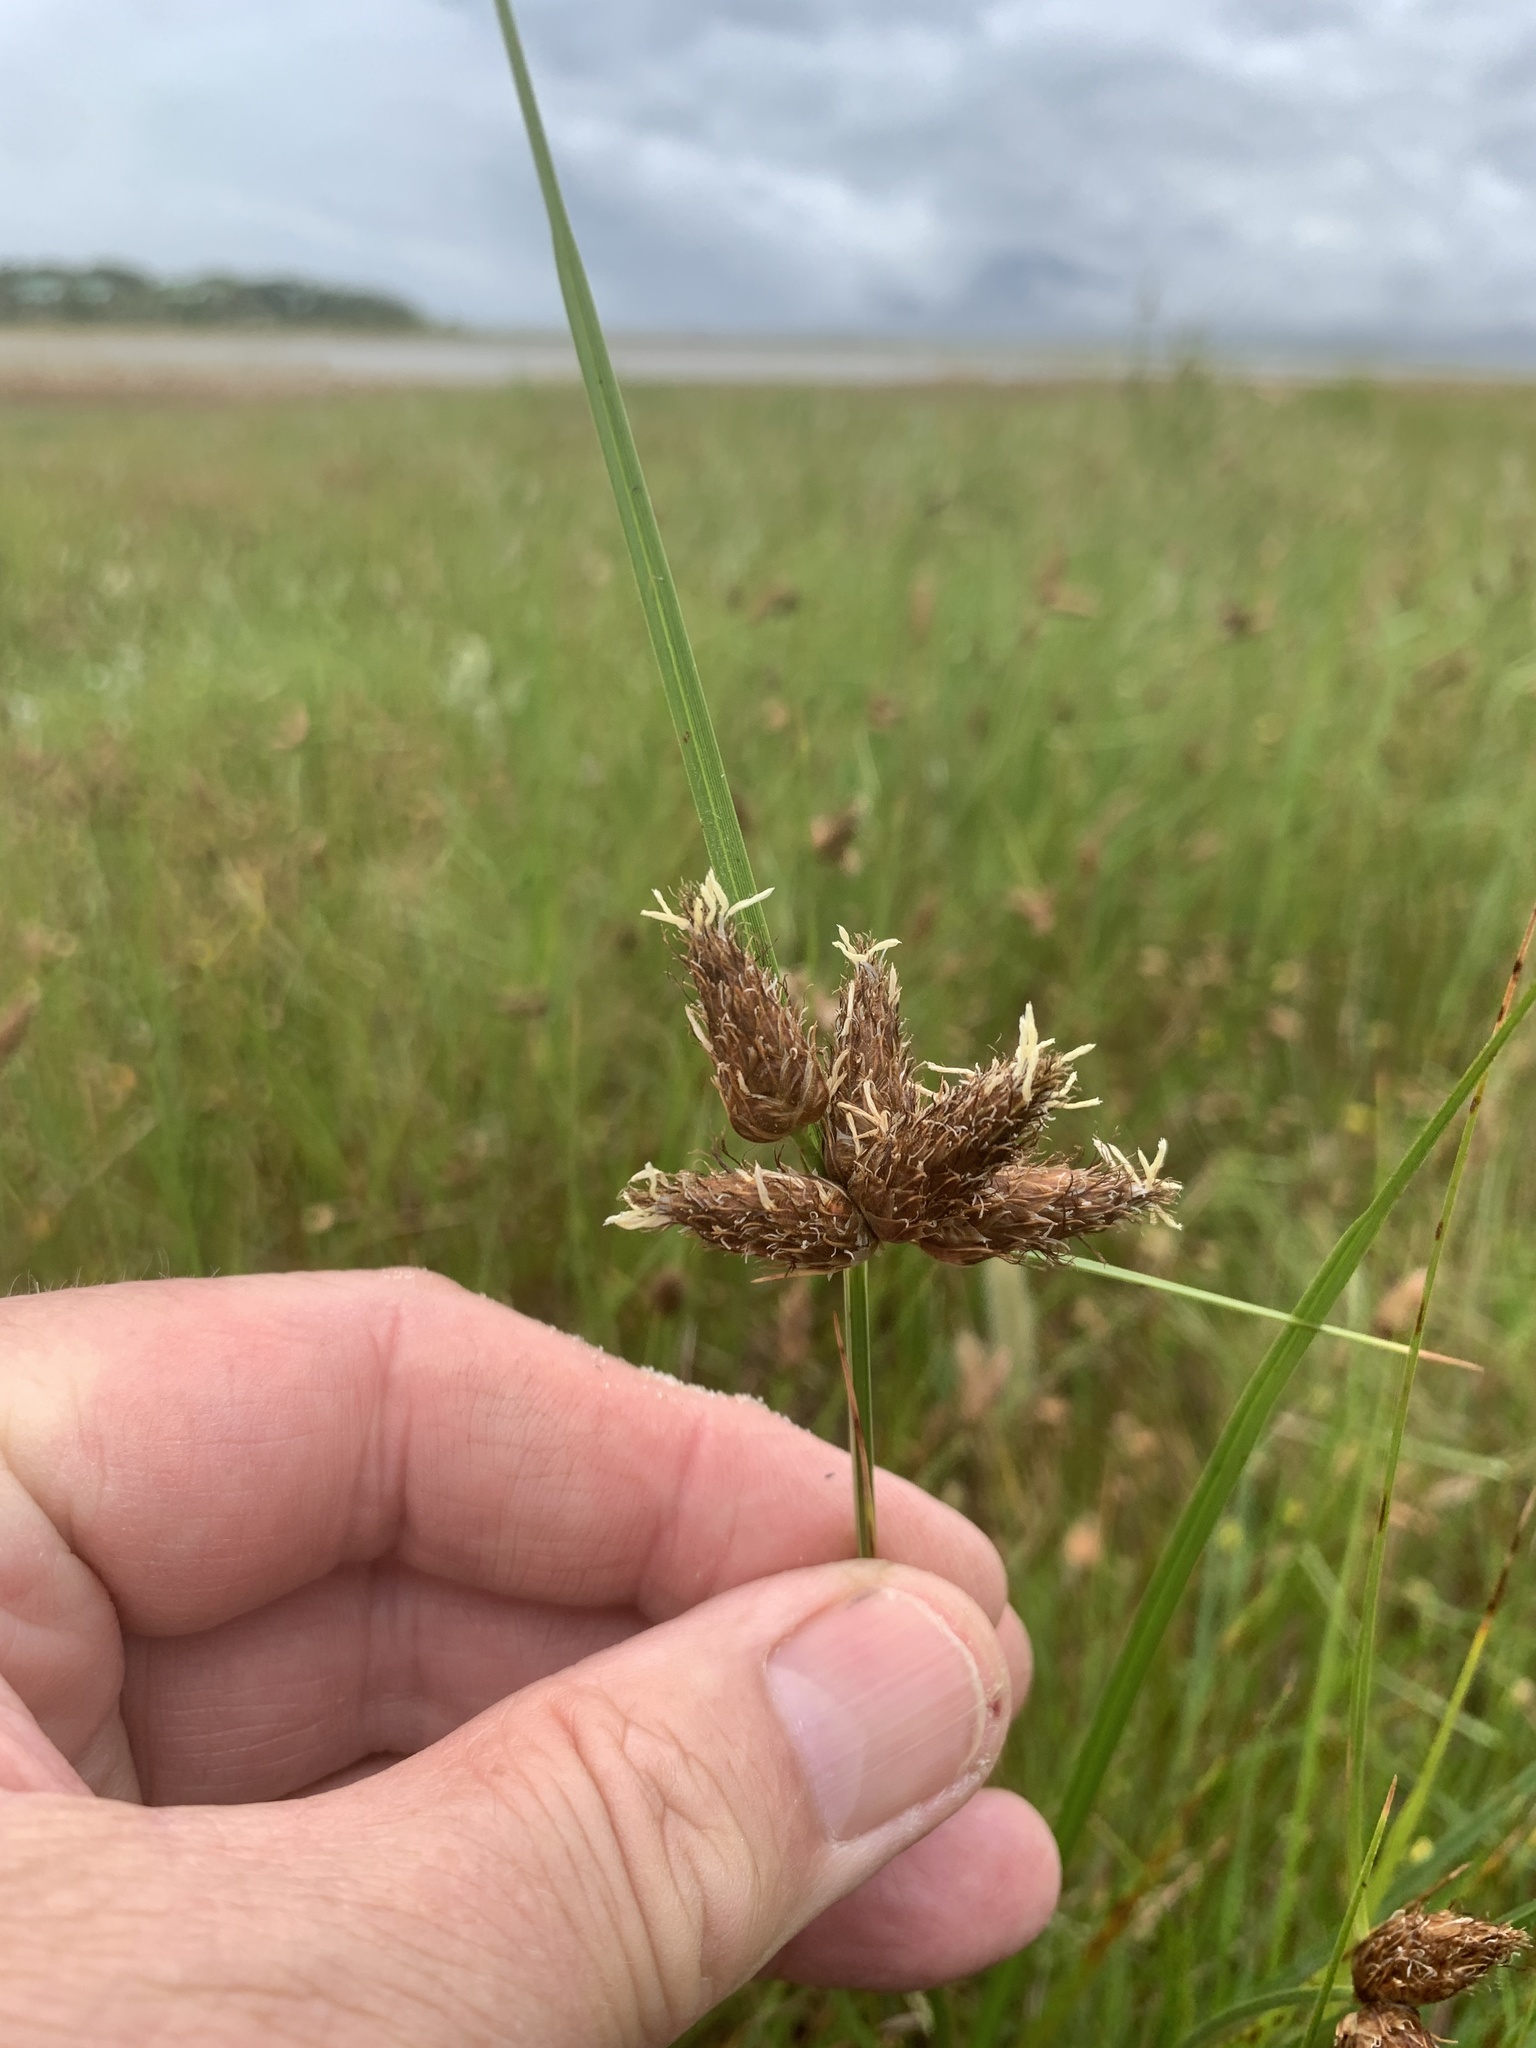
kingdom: Plantae
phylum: Tracheophyta
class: Liliopsida
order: Poales
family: Cyperaceae
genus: Bolboschoenus
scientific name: Bolboschoenus maritimus
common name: Sea club-rush
